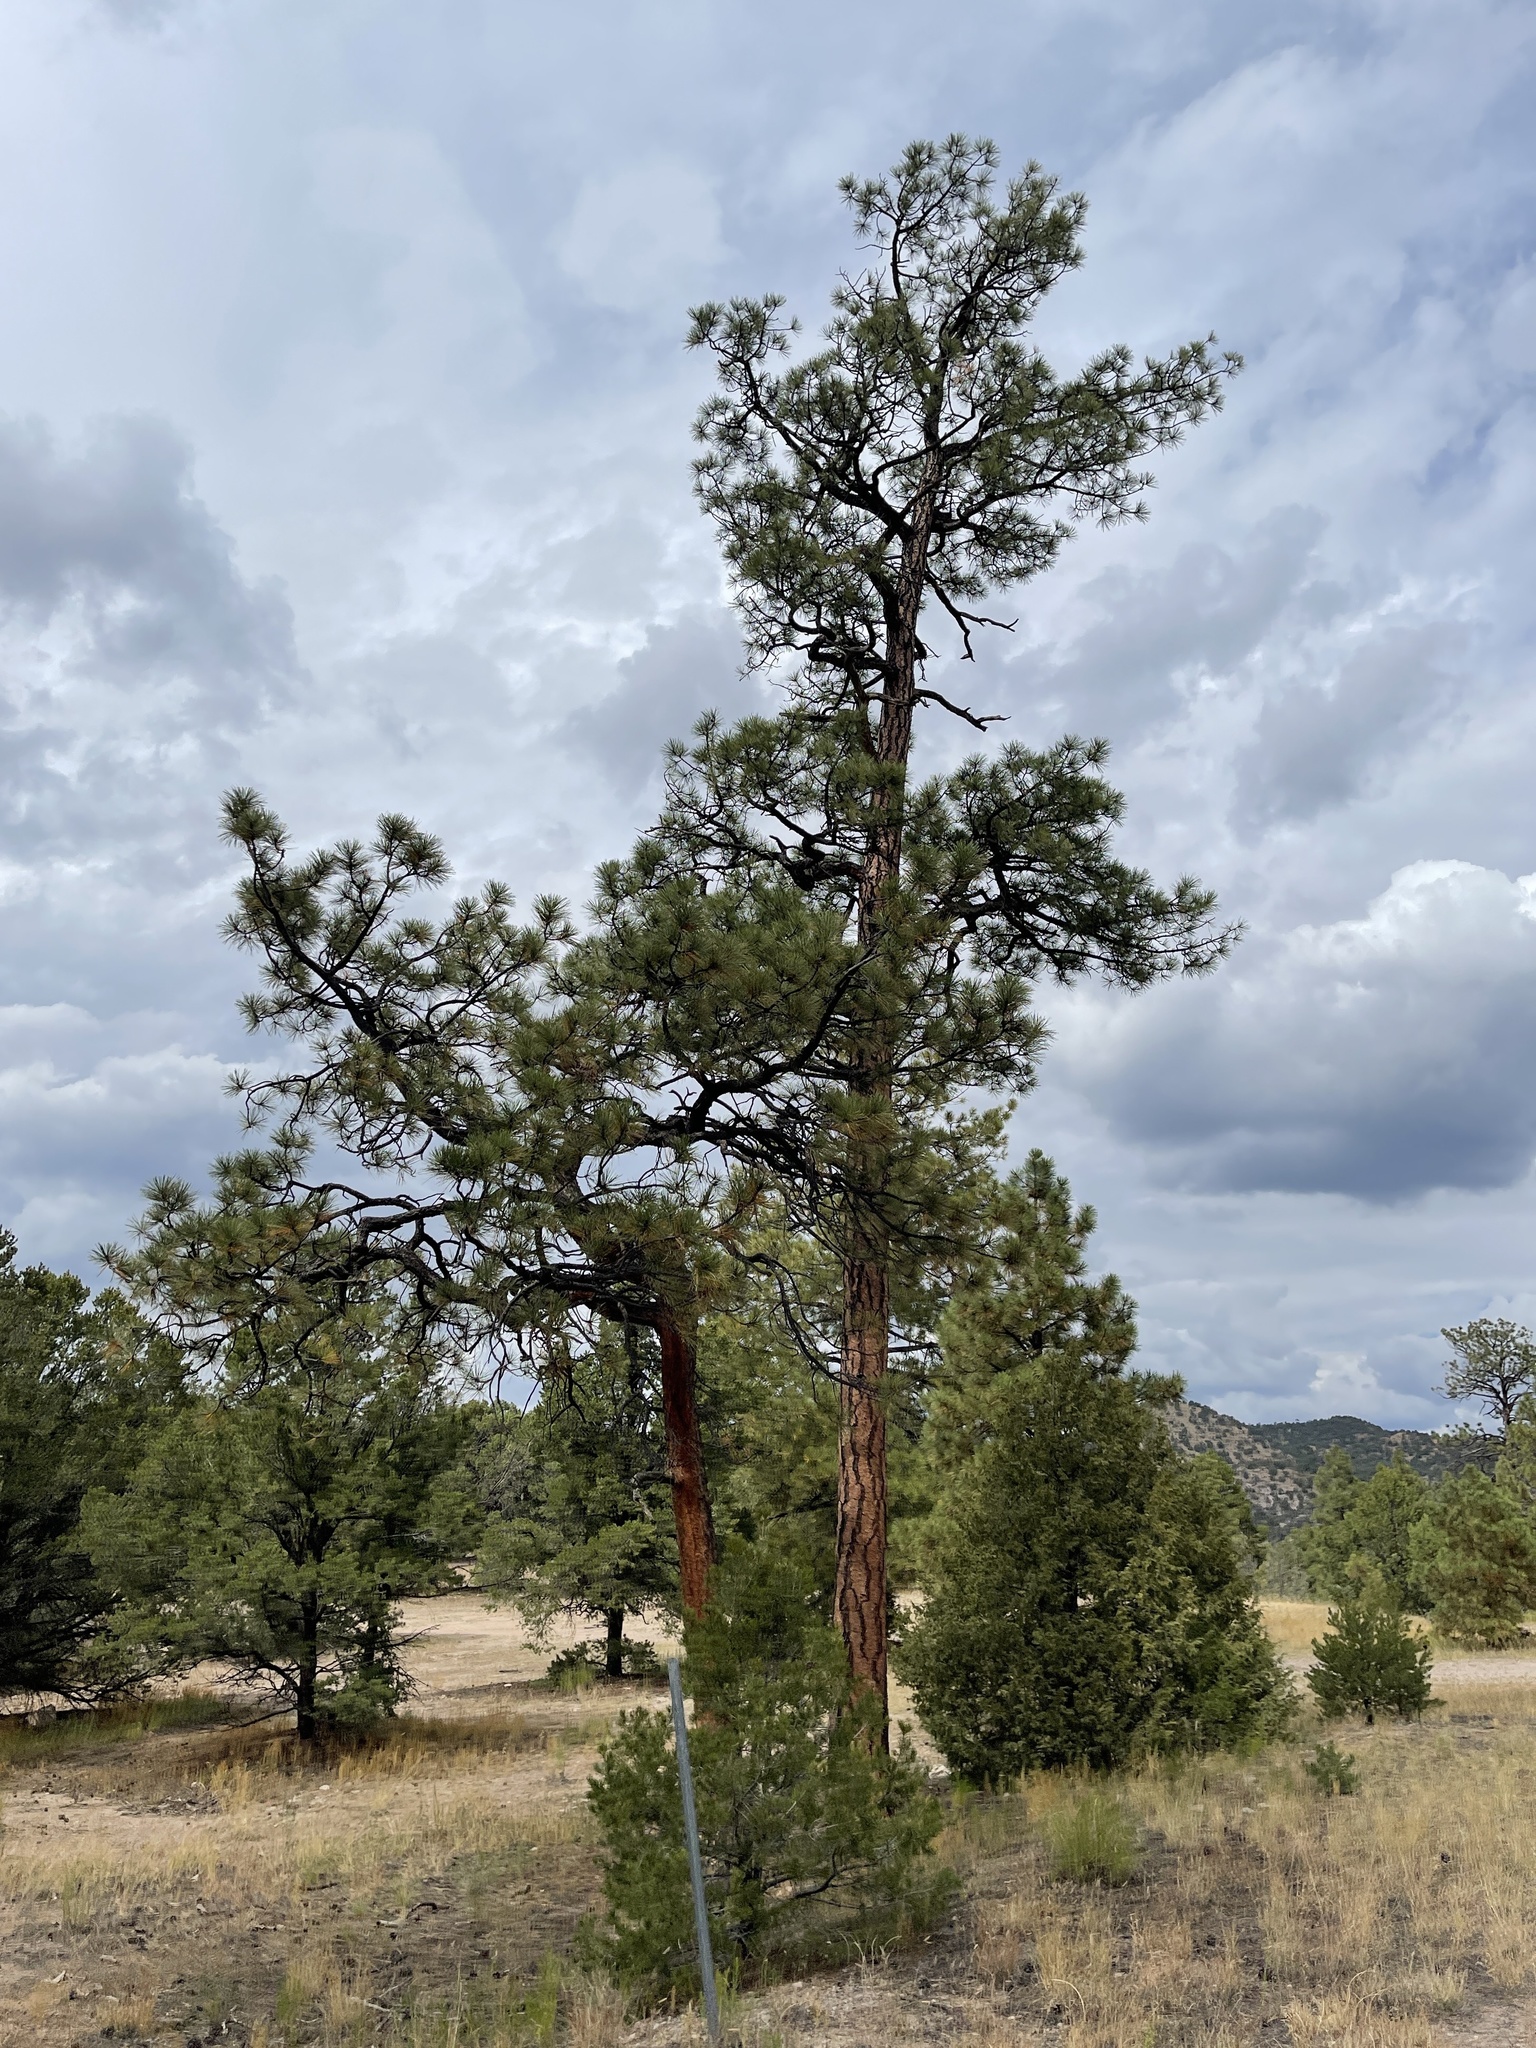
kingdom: Plantae
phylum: Tracheophyta
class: Pinopsida
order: Pinales
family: Pinaceae
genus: Pinus
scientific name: Pinus ponderosa
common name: Western yellow-pine
